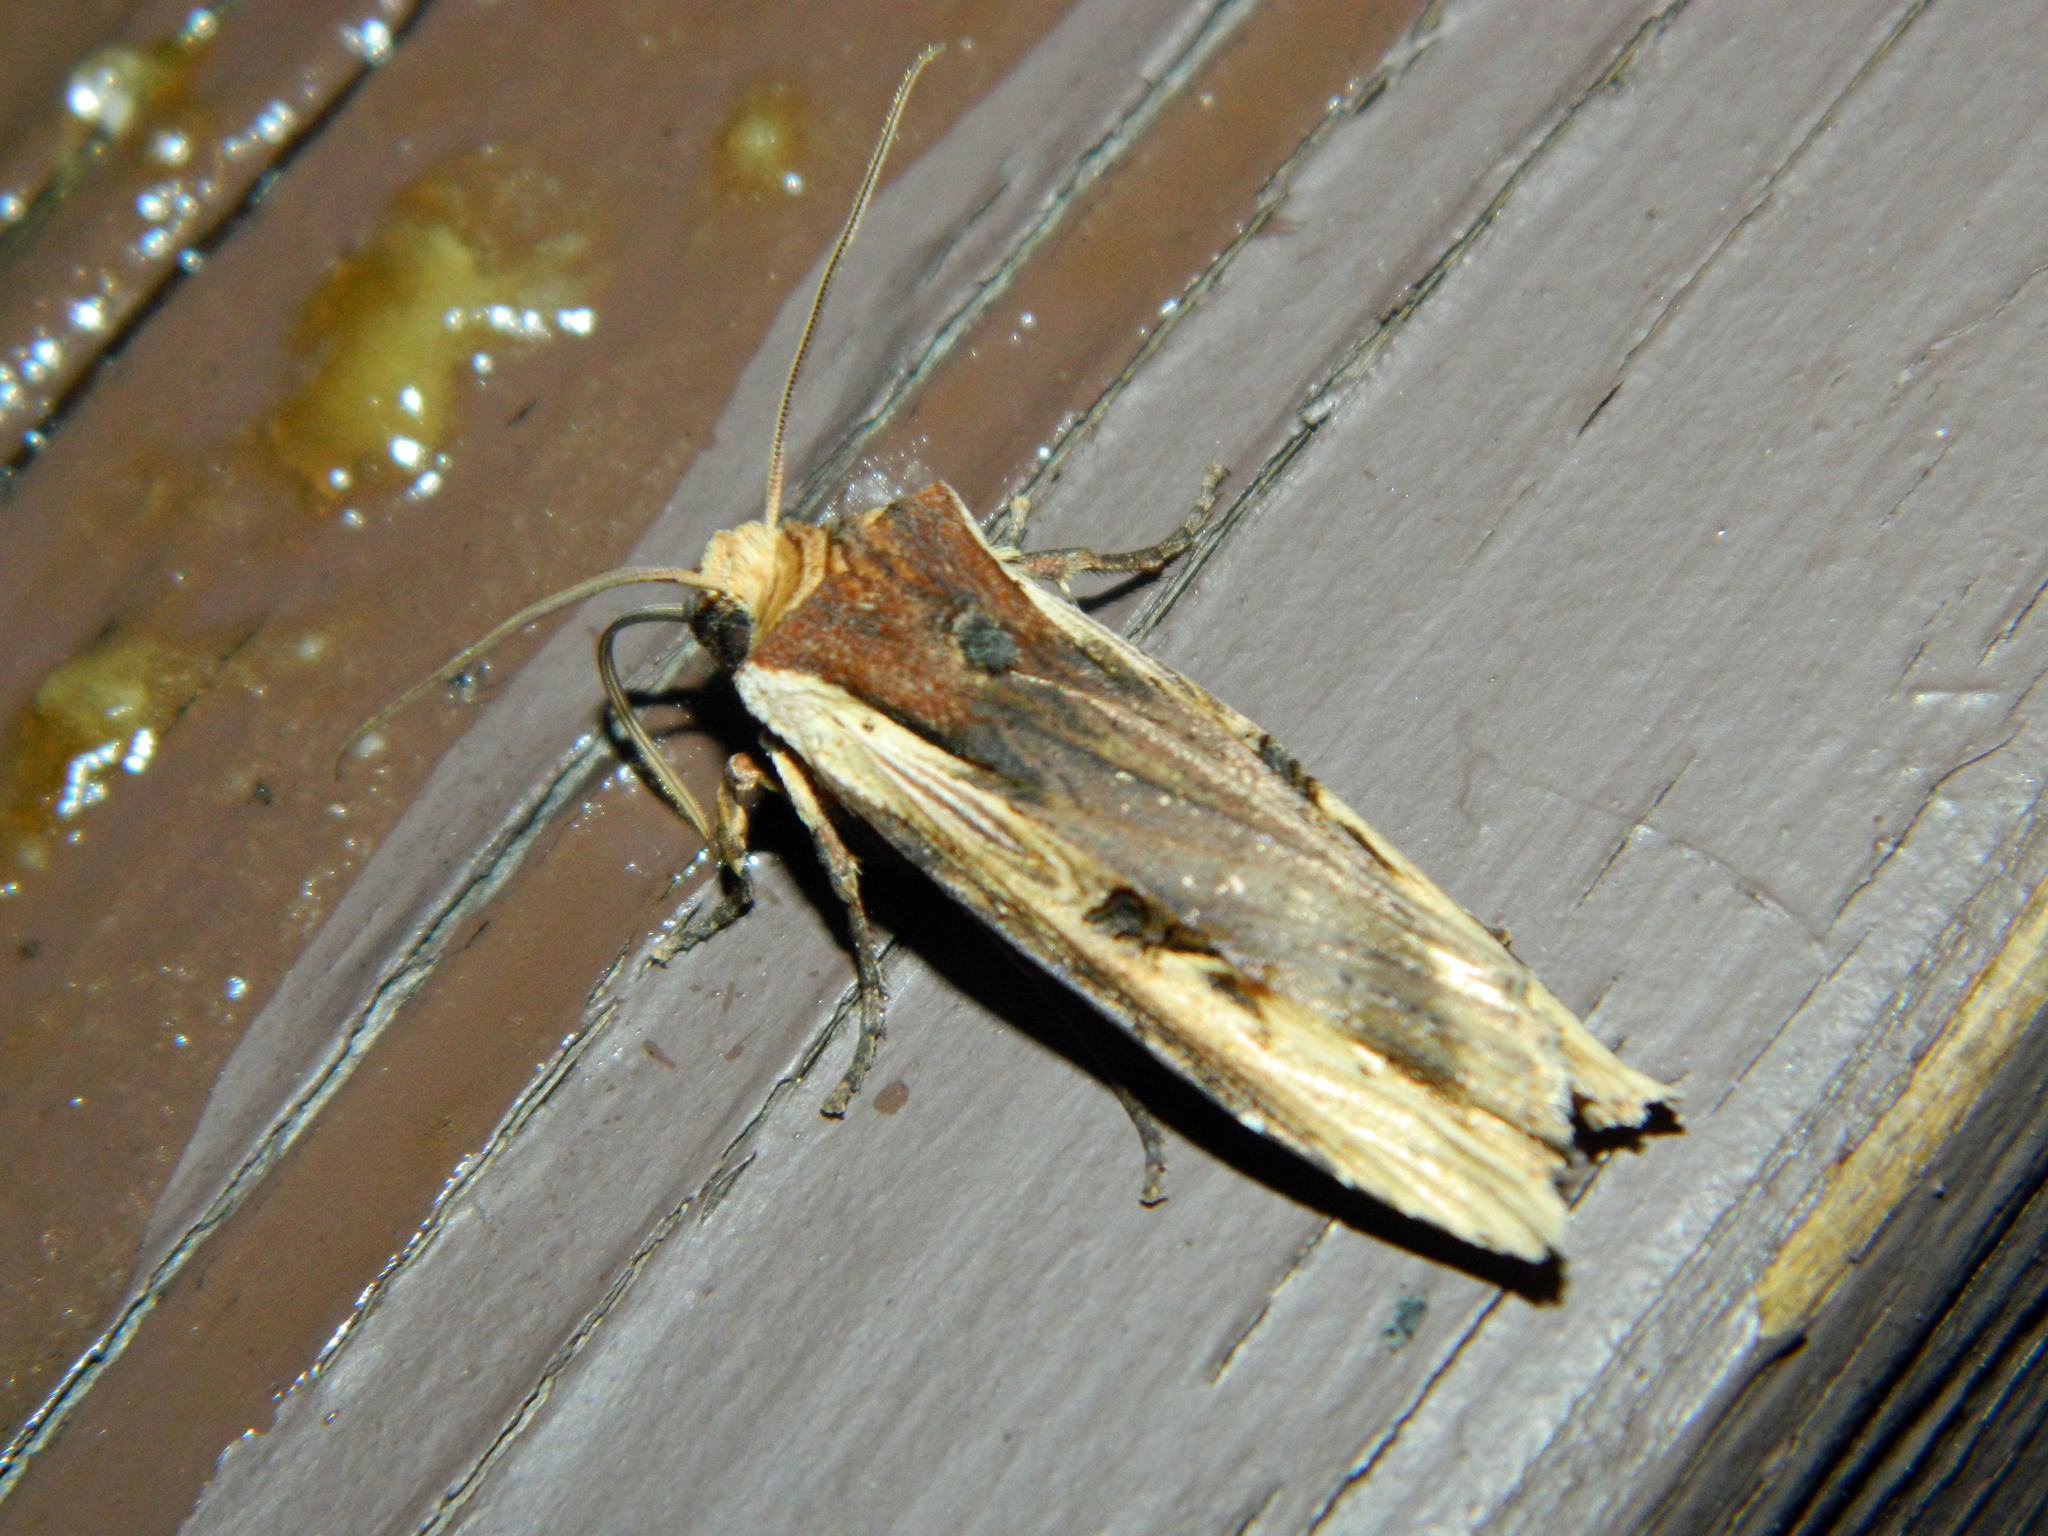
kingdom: Animalia
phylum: Arthropoda
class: Insecta
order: Lepidoptera
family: Noctuidae
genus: Xylena
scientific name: Xylena curvimacula
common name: Dot-and-dash swordgrass moth
